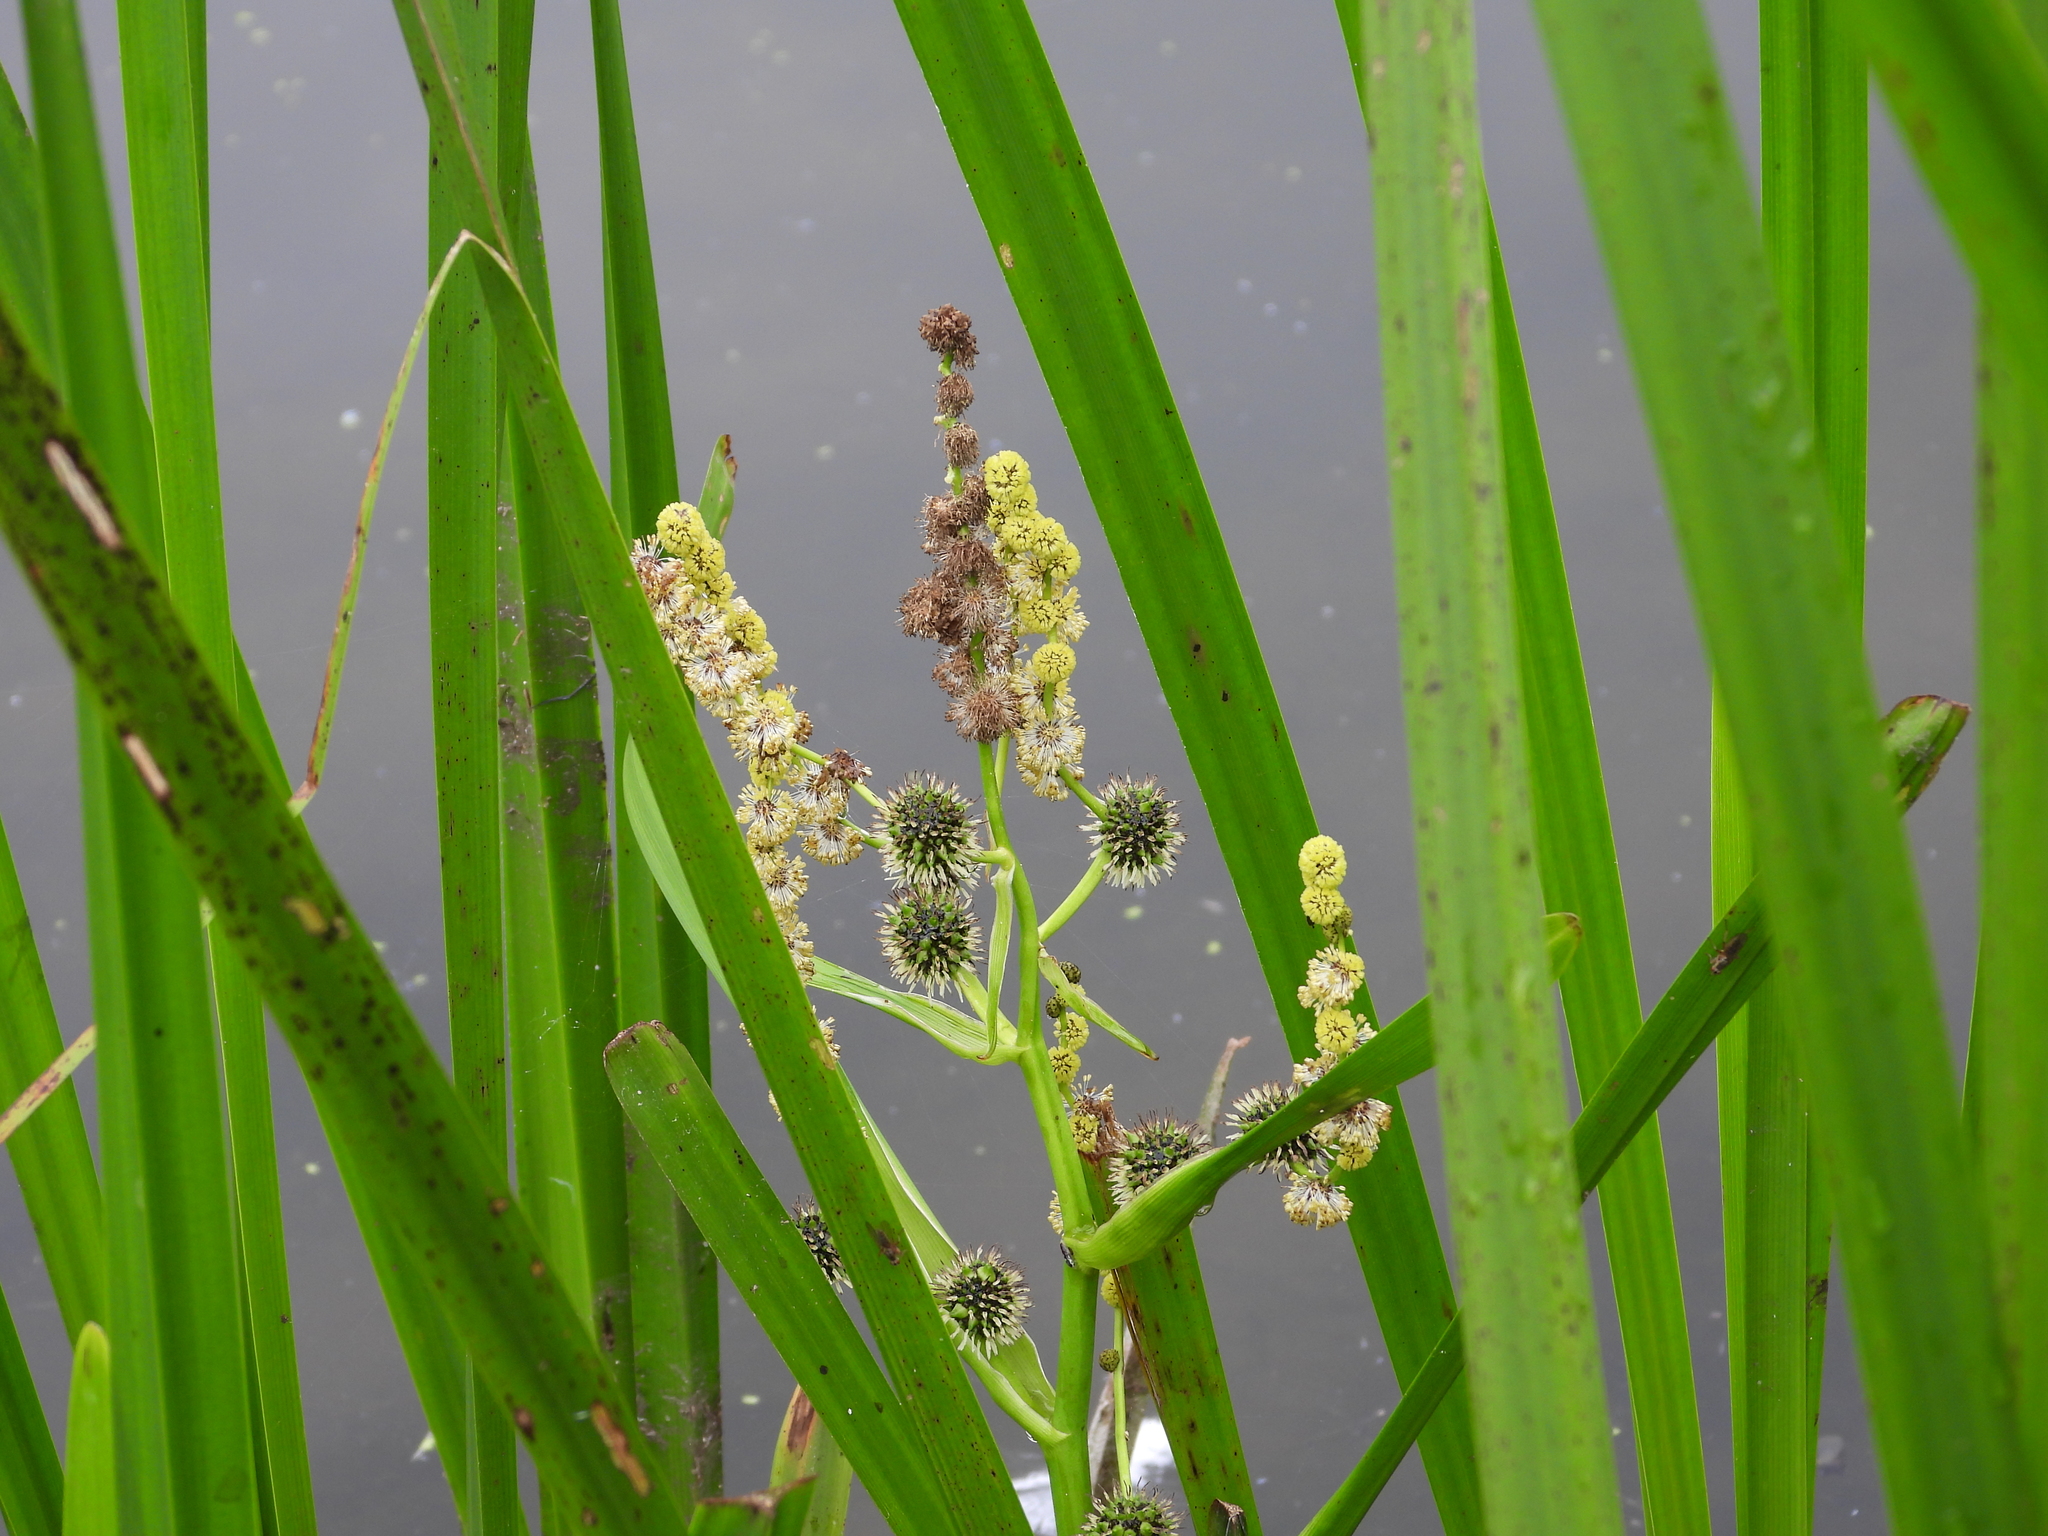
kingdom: Plantae
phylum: Tracheophyta
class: Liliopsida
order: Poales
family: Typhaceae
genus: Sparganium
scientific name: Sparganium erectum
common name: Branched bur-reed
